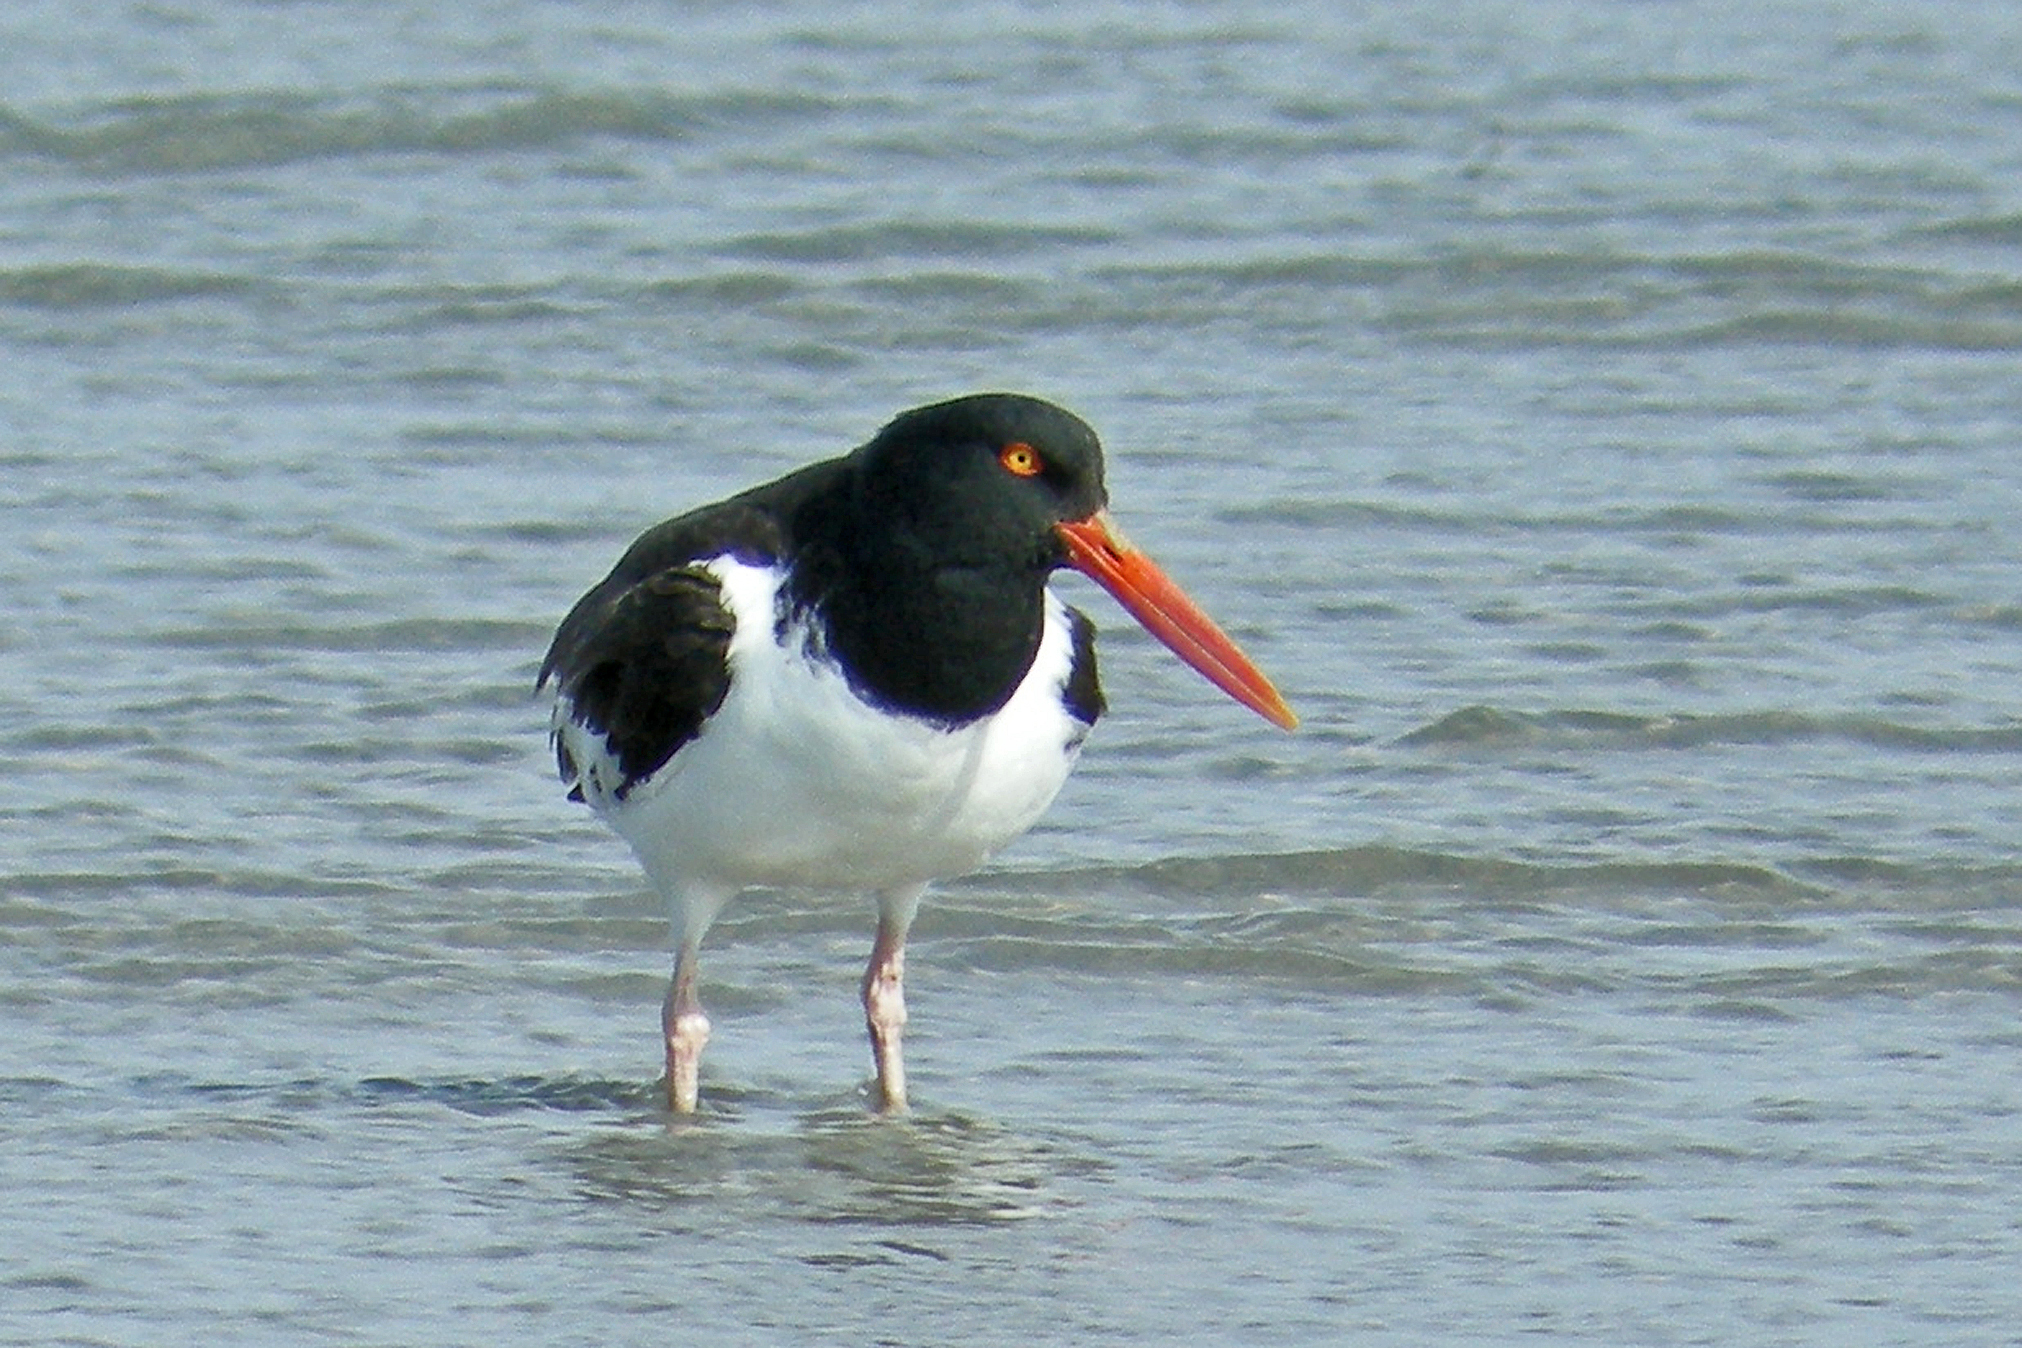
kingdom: Animalia
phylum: Chordata
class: Aves
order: Charadriiformes
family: Haematopodidae
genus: Haematopus
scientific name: Haematopus palliatus
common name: American oystercatcher
